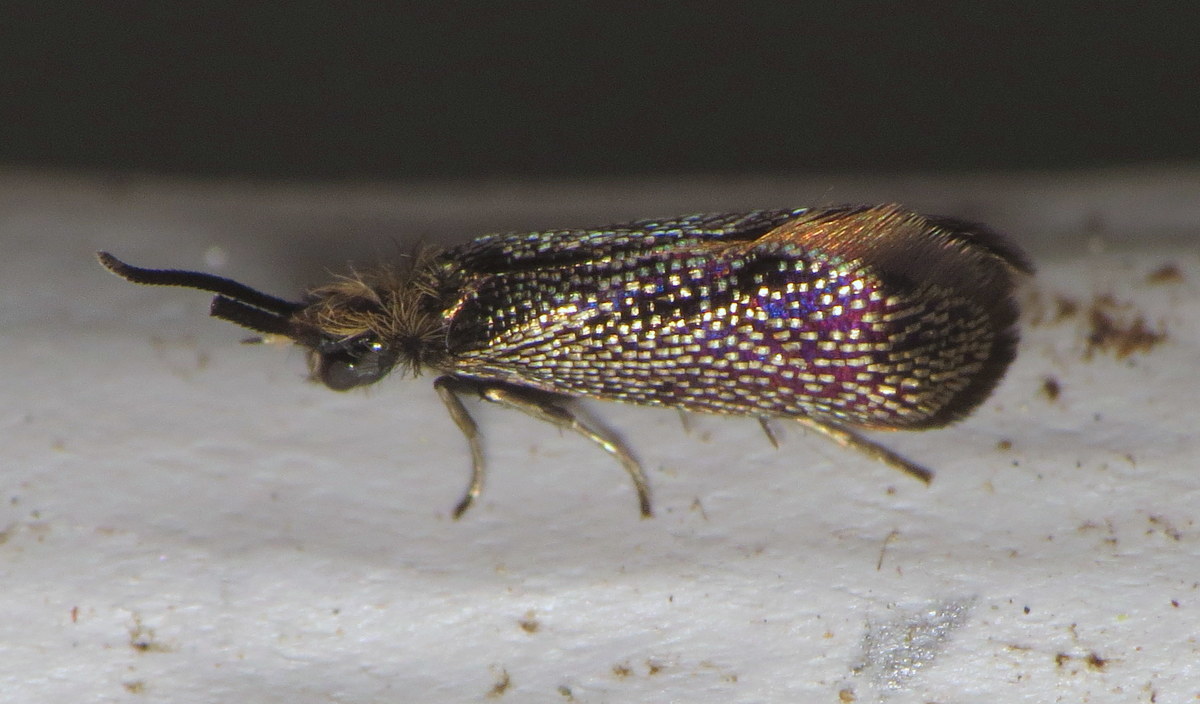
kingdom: Animalia
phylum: Arthropoda
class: Insecta
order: Lepidoptera
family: Eriocraniidae
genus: Eriocraniella
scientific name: Eriocraniella platyptera
